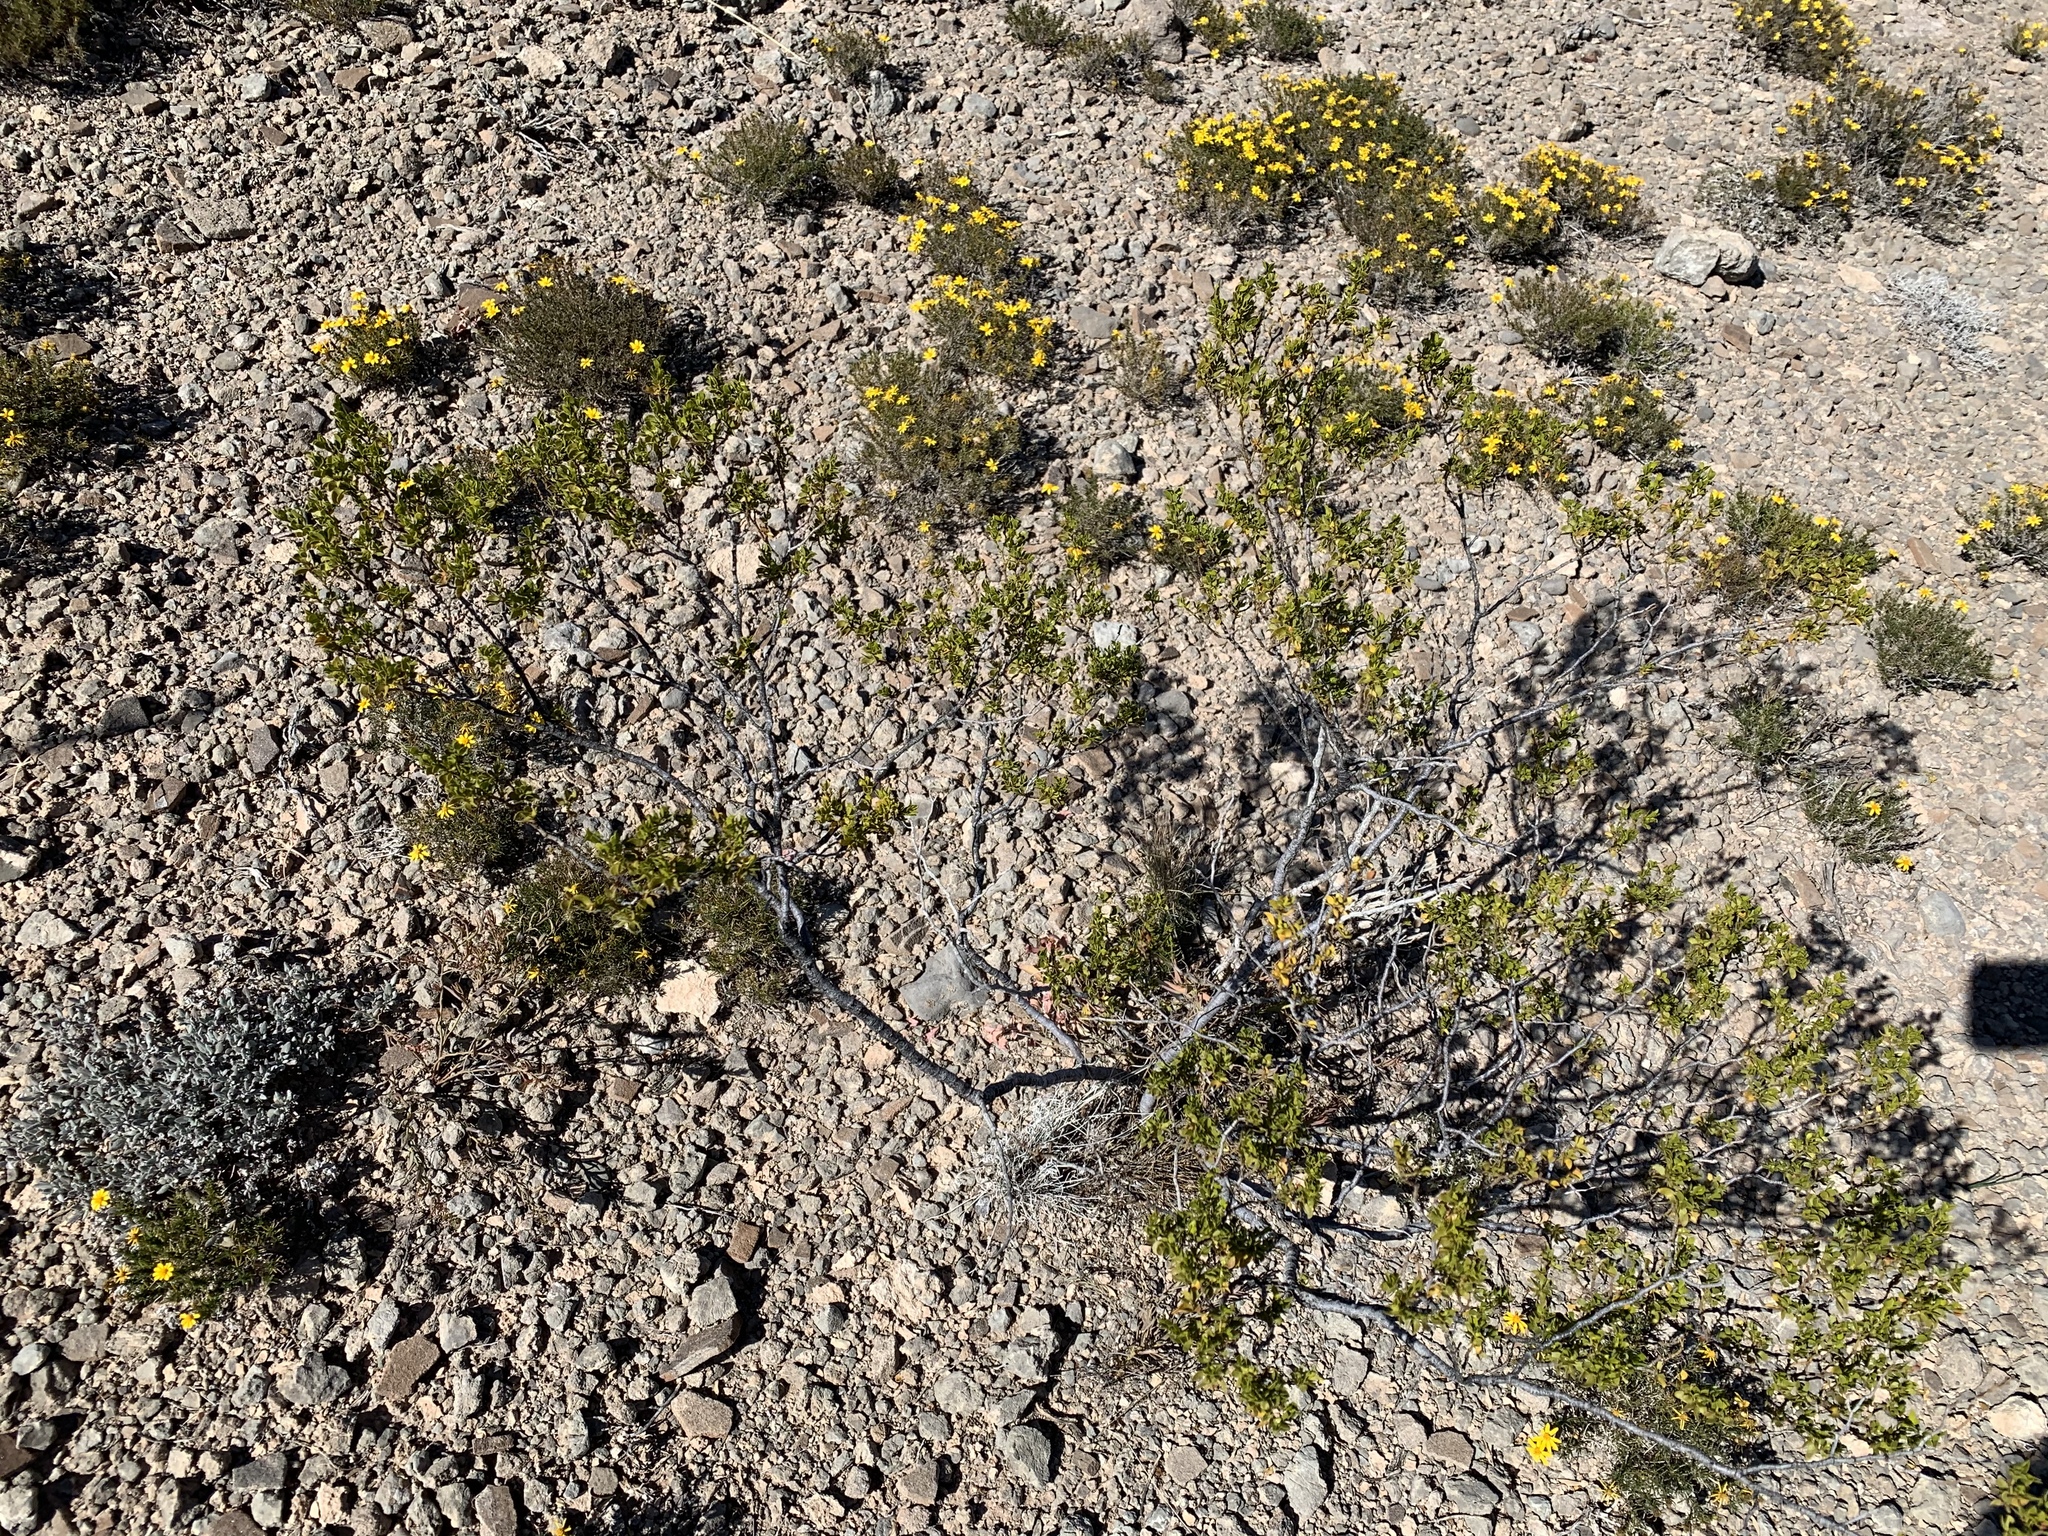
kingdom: Plantae
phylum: Tracheophyta
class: Magnoliopsida
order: Zygophyllales
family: Zygophyllaceae
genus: Larrea
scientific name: Larrea tridentata
